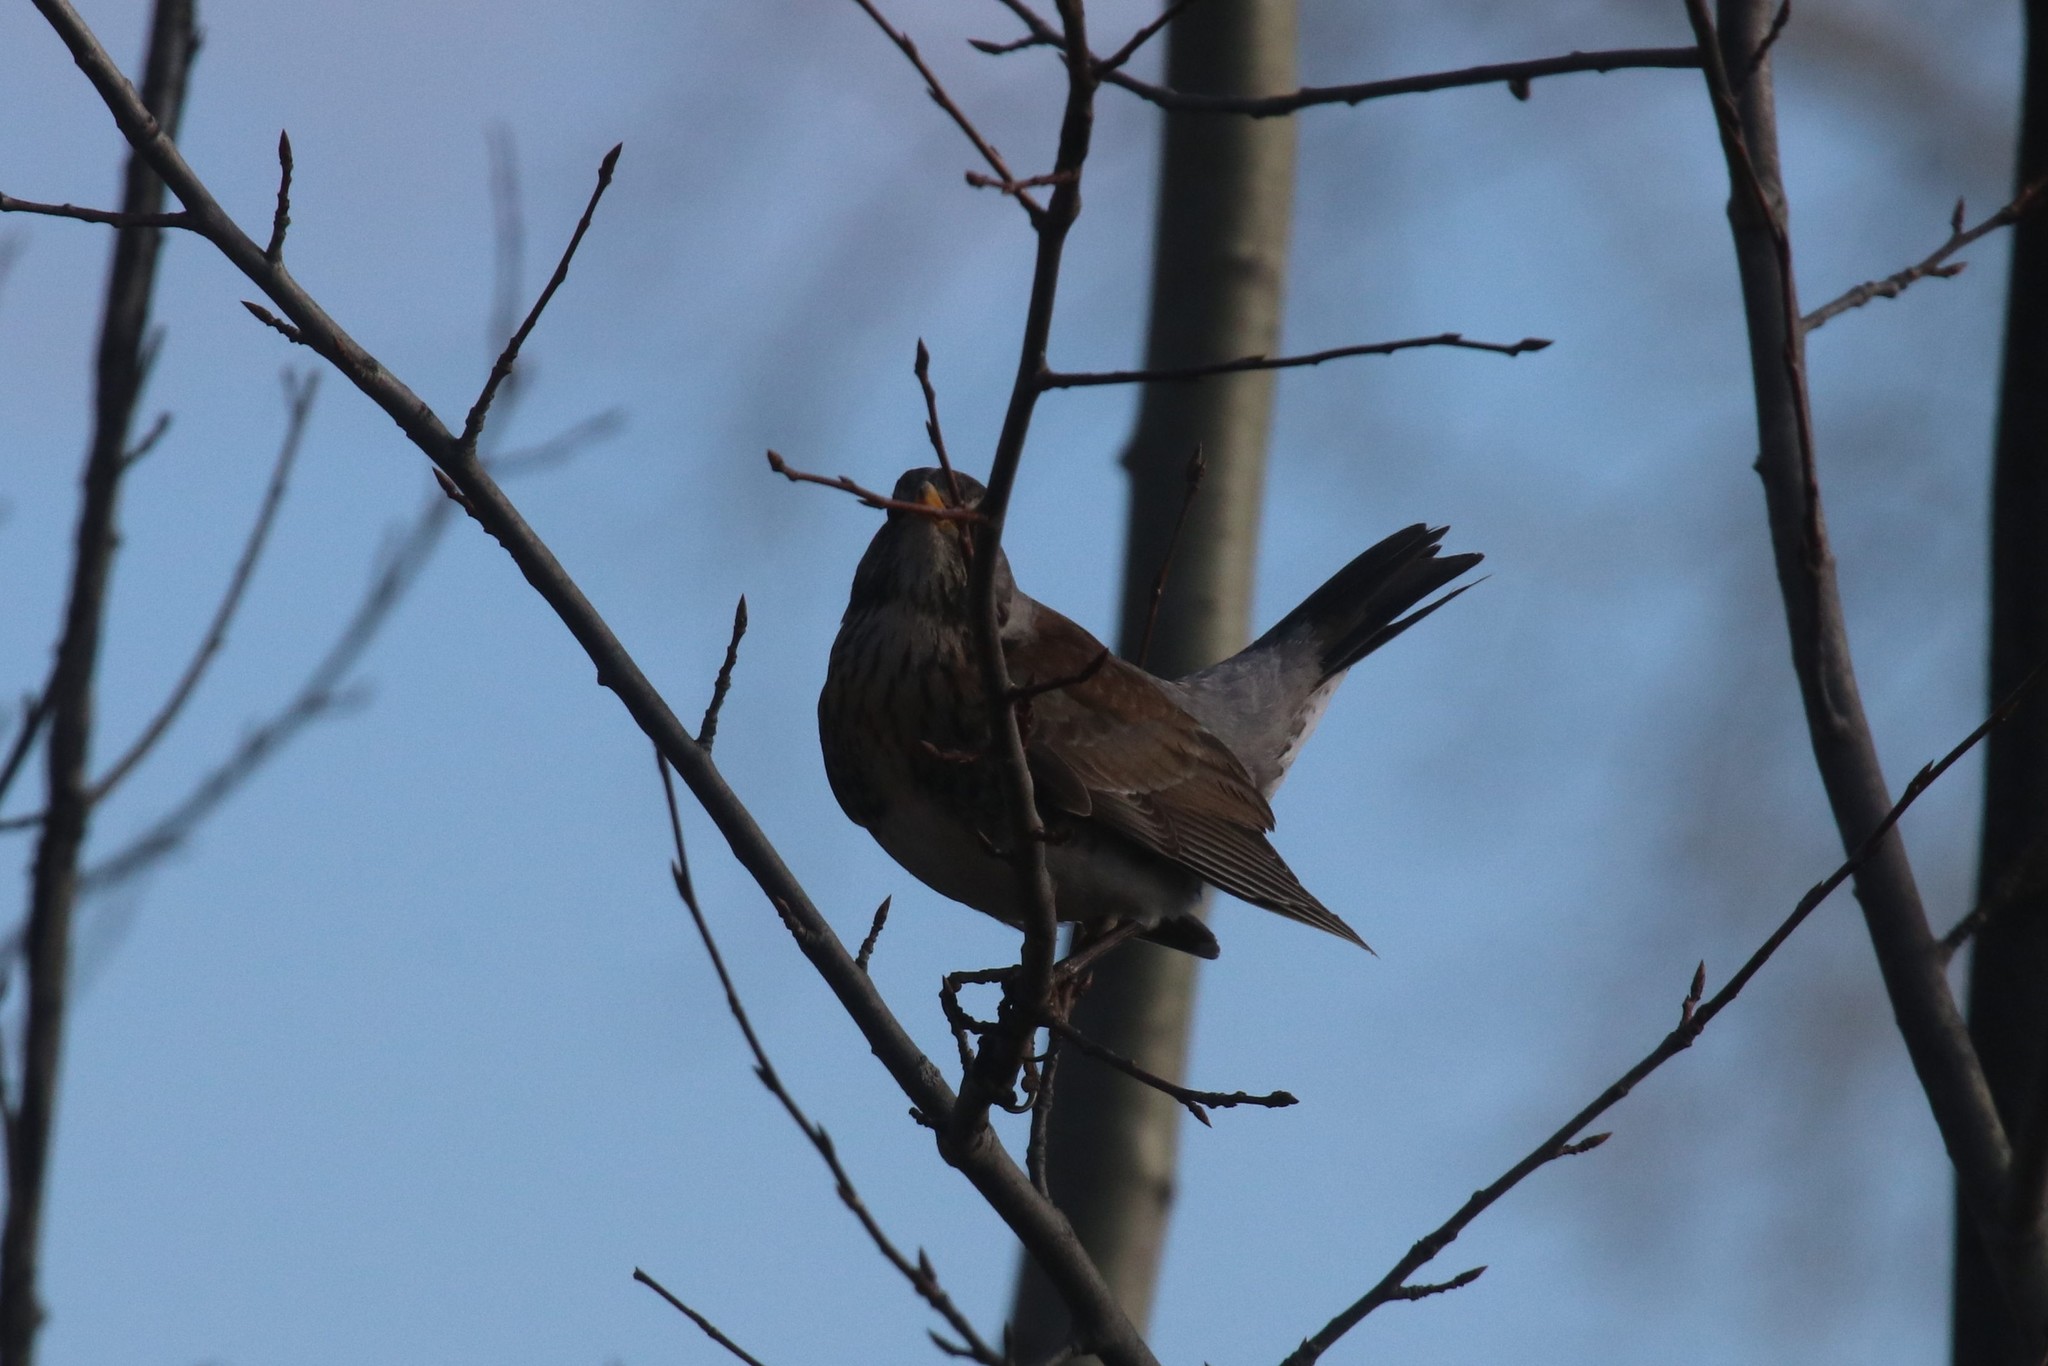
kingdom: Animalia
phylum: Chordata
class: Aves
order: Passeriformes
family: Turdidae
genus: Turdus
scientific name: Turdus pilaris
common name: Fieldfare
